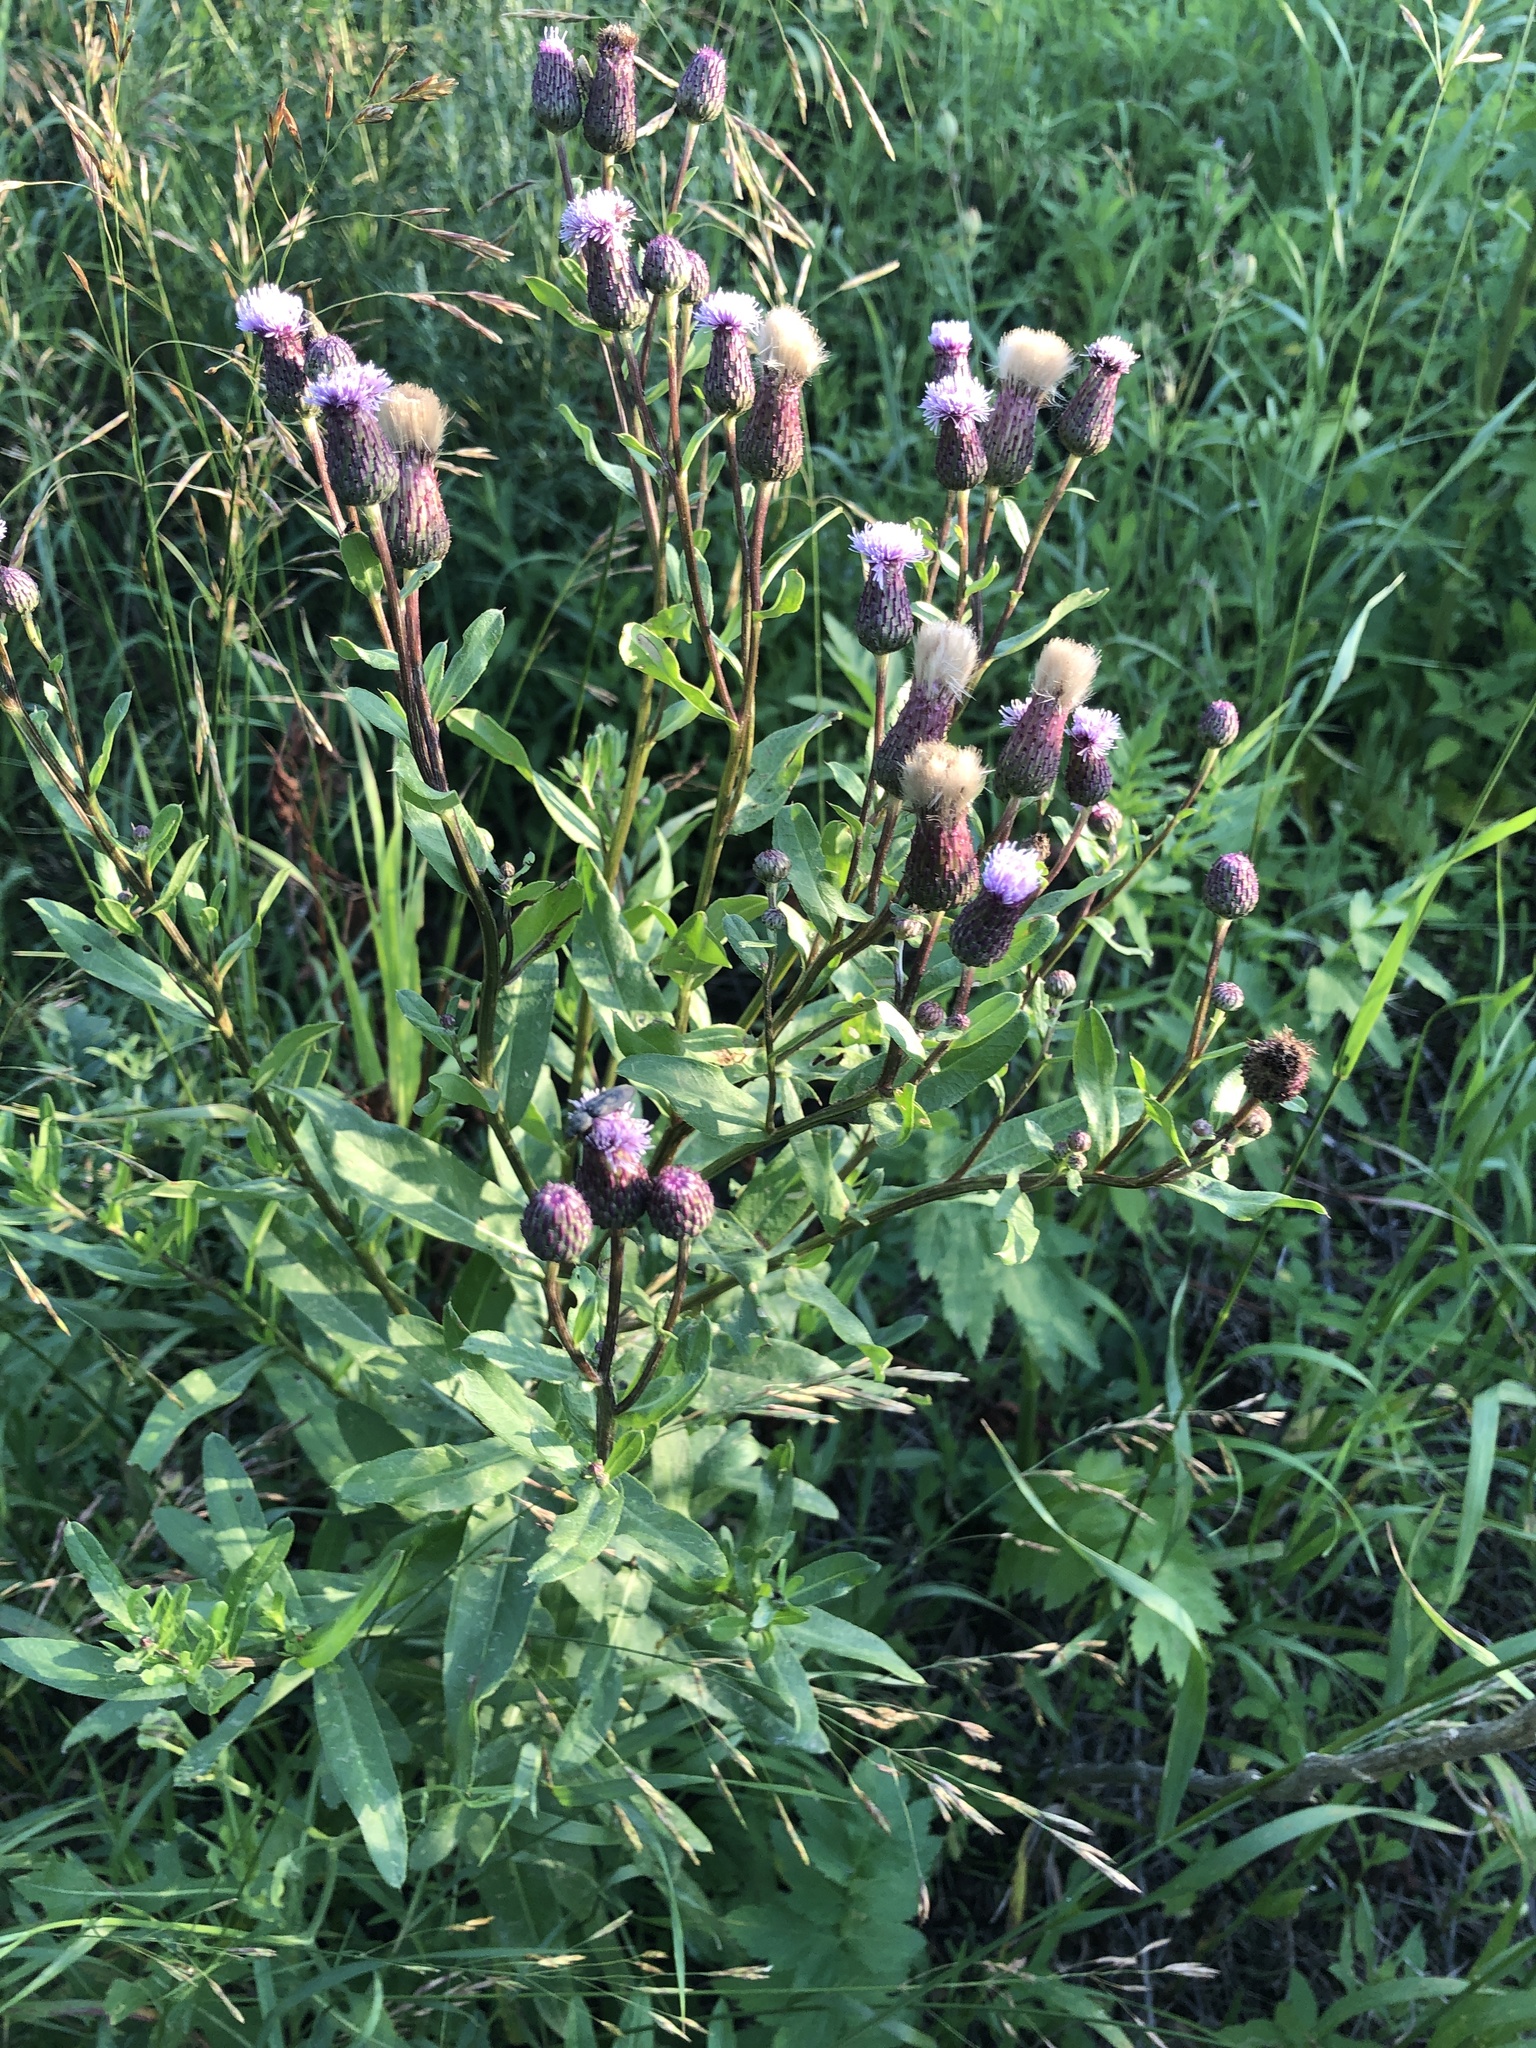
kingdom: Plantae
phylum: Tracheophyta
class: Magnoliopsida
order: Asterales
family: Asteraceae
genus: Cirsium
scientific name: Cirsium arvense
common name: Creeping thistle
